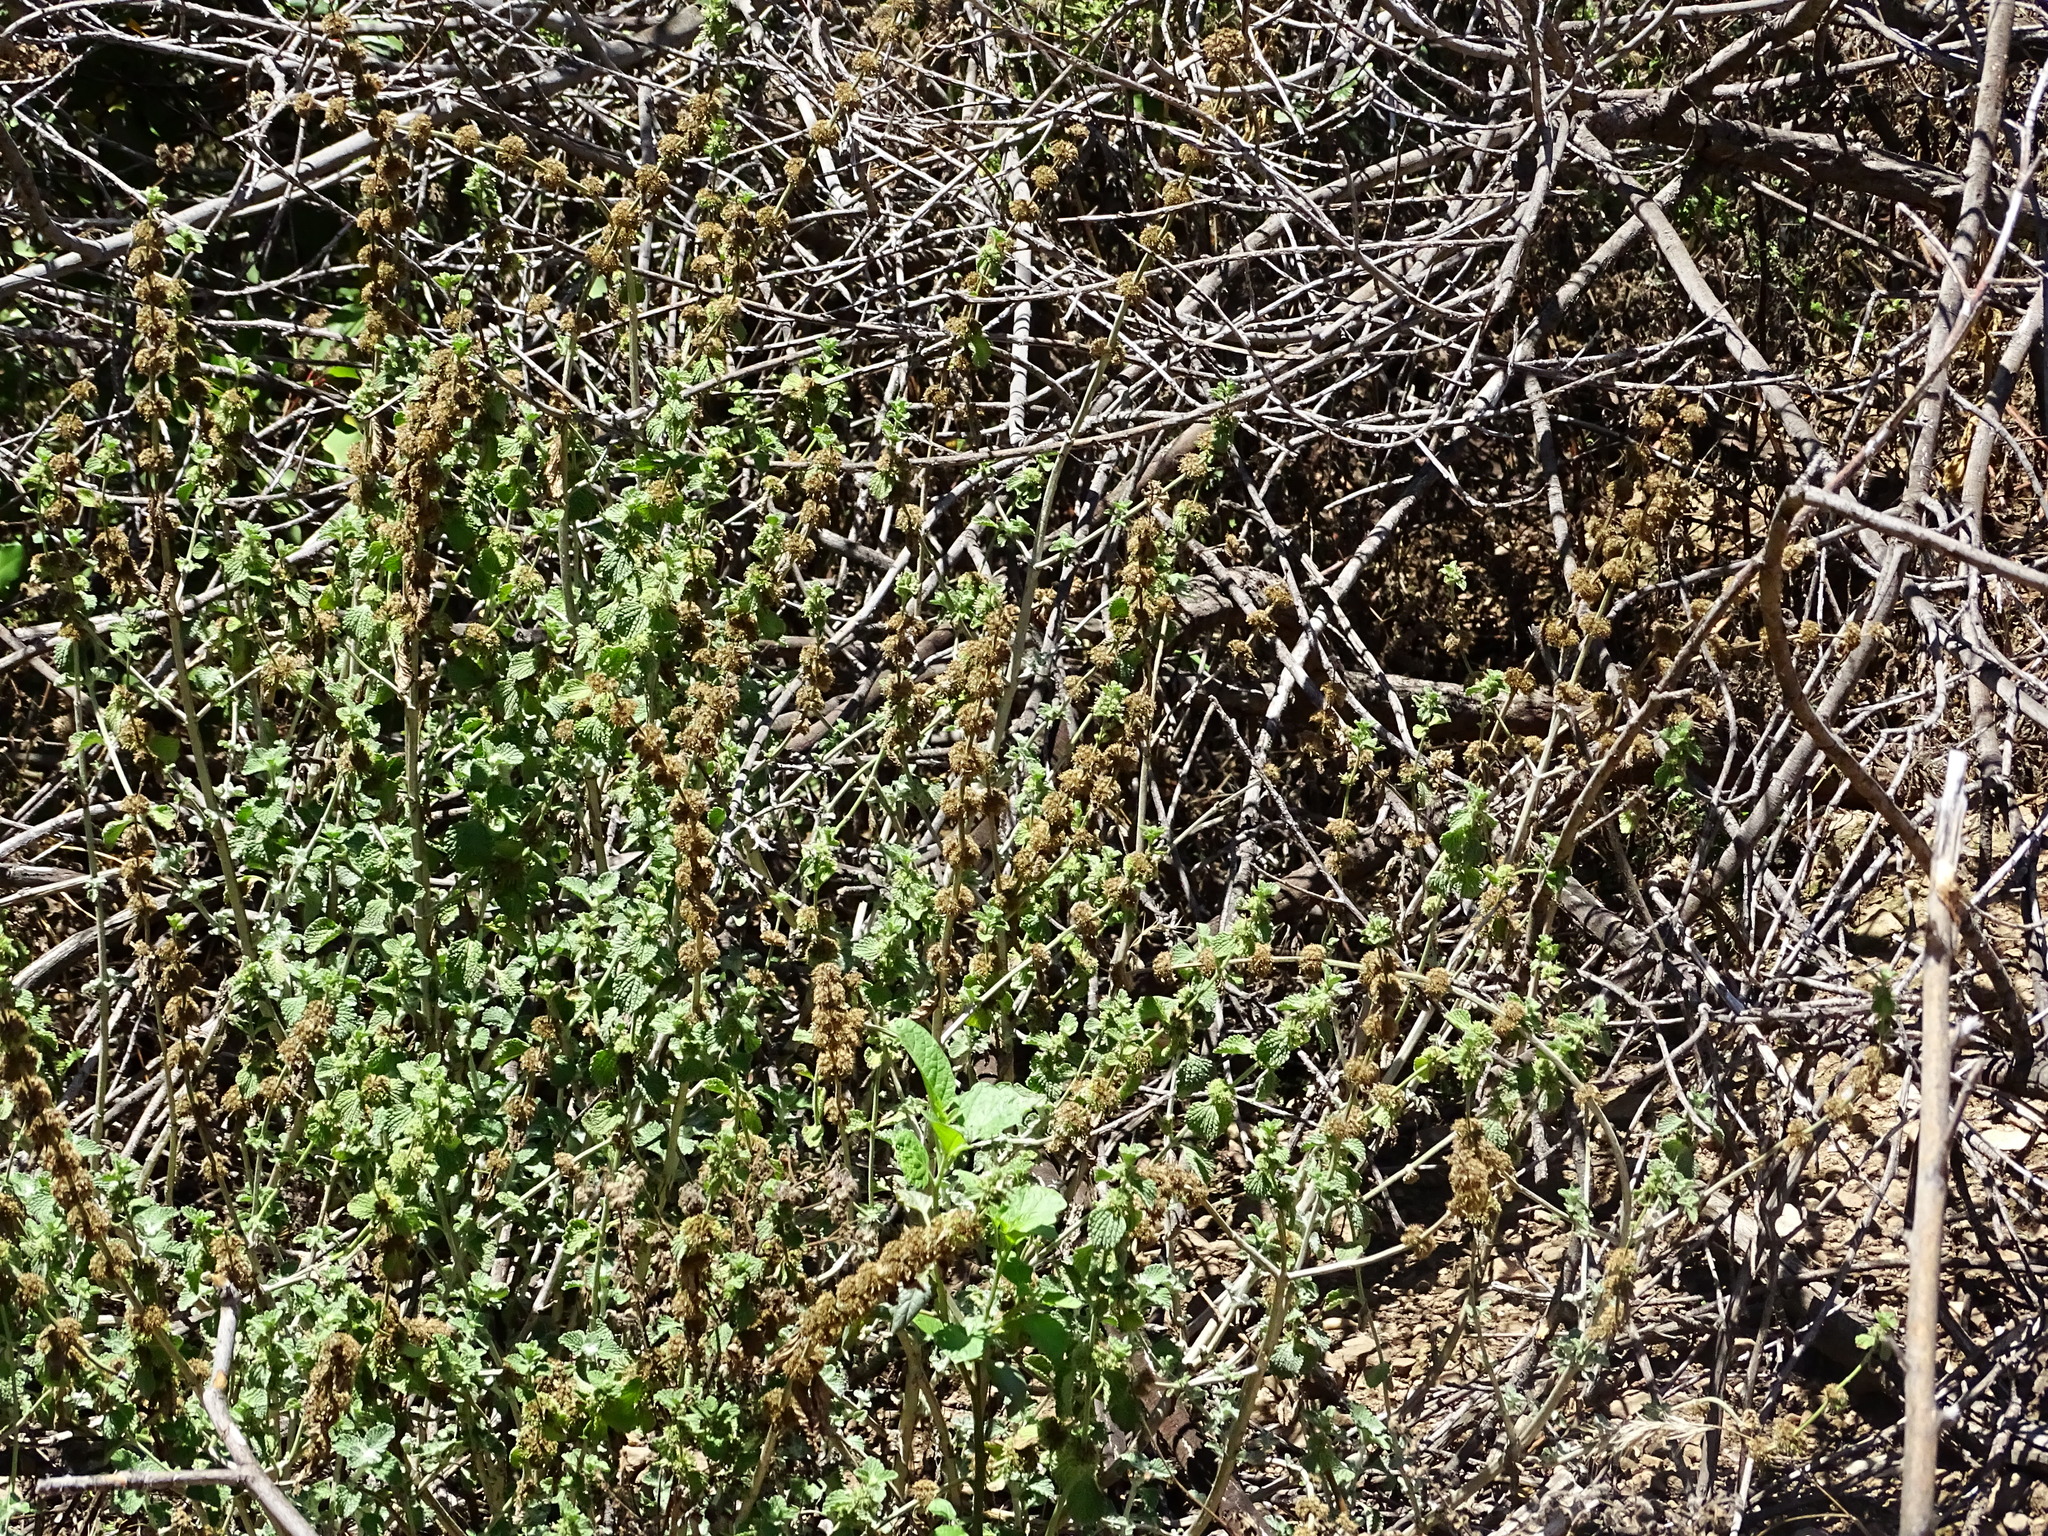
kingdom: Plantae
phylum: Tracheophyta
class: Magnoliopsida
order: Lamiales
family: Lamiaceae
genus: Marrubium
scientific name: Marrubium vulgare
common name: Horehound
